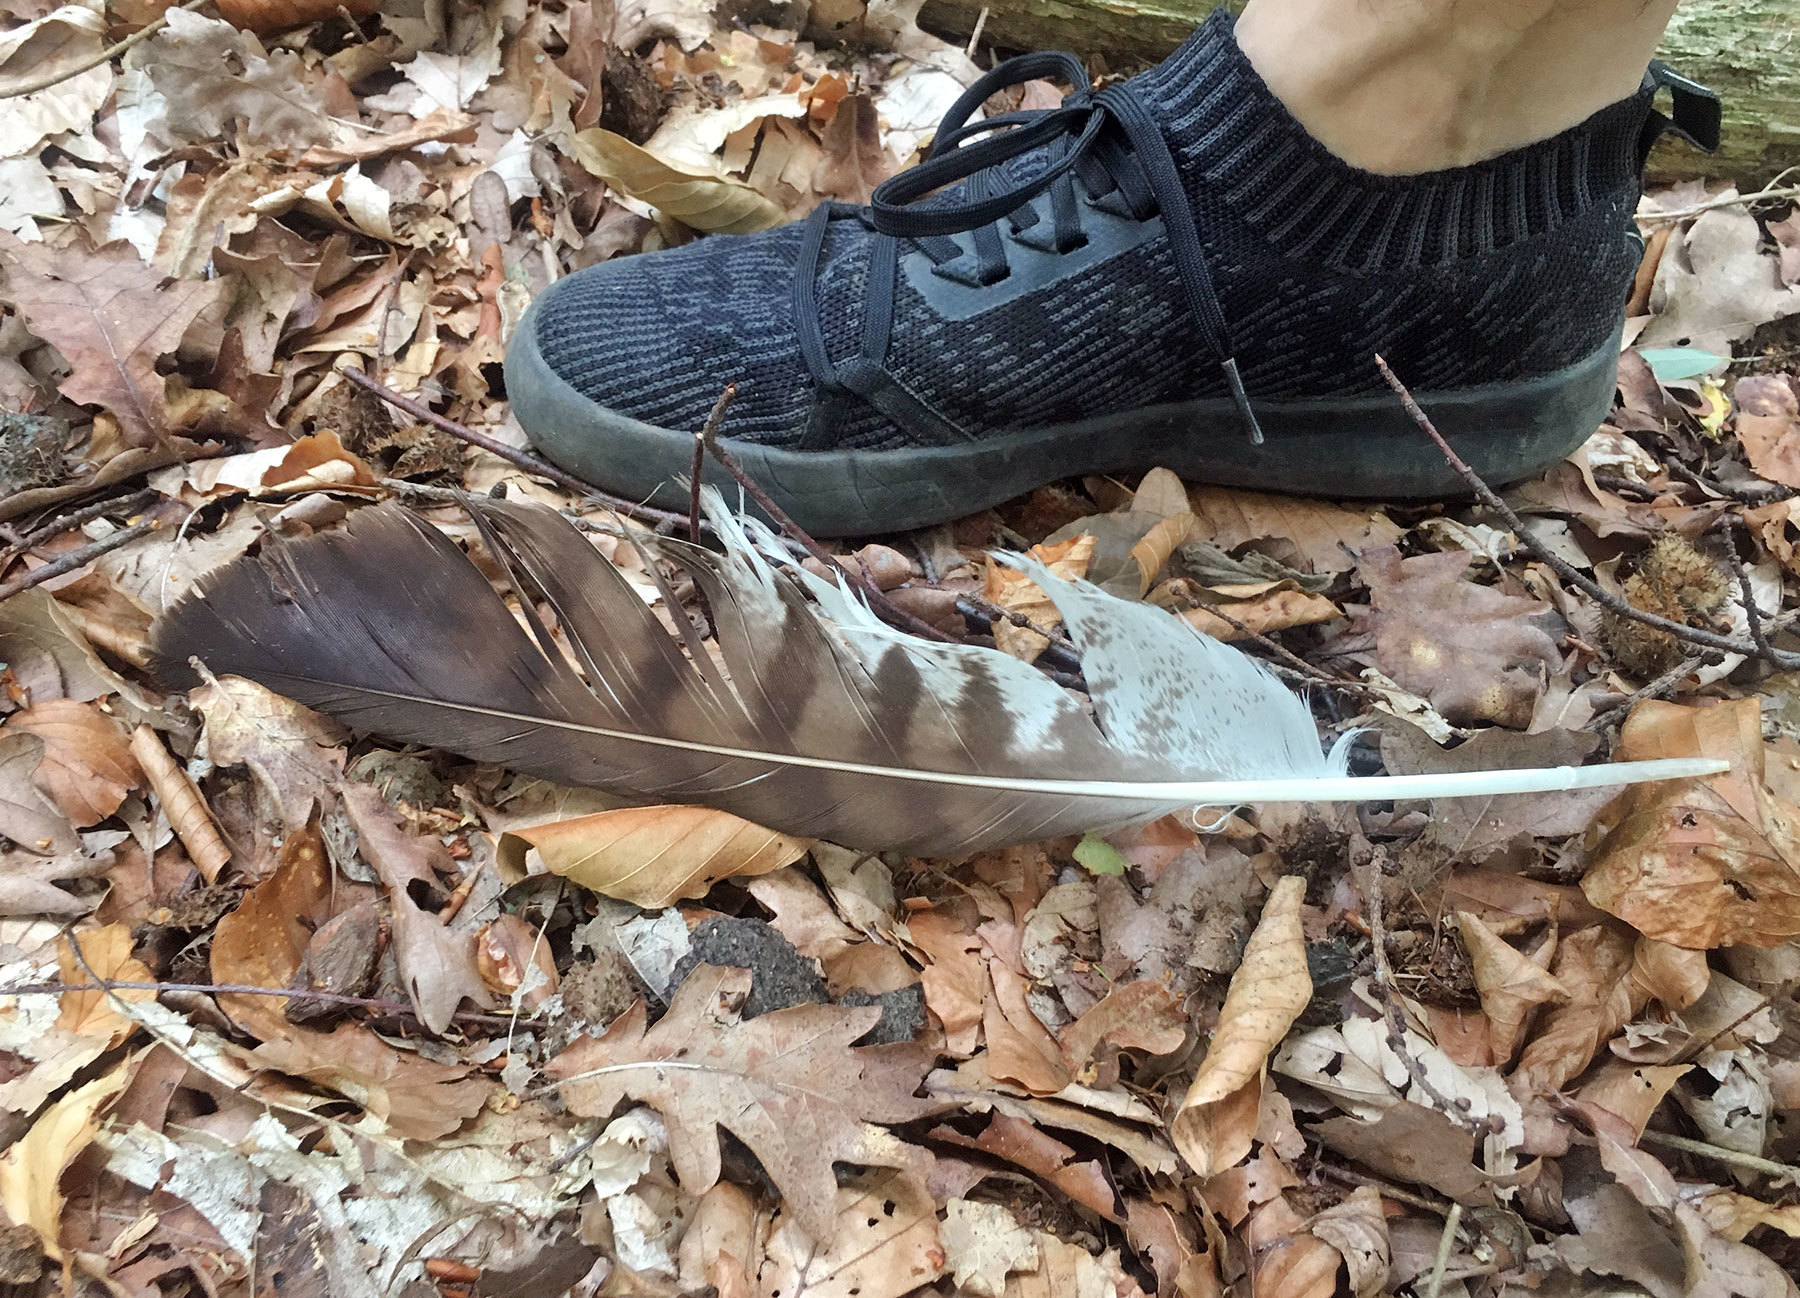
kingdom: Animalia
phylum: Chordata
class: Aves
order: Accipitriformes
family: Accipitridae
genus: Buteo
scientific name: Buteo buteo
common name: Common buzzard
